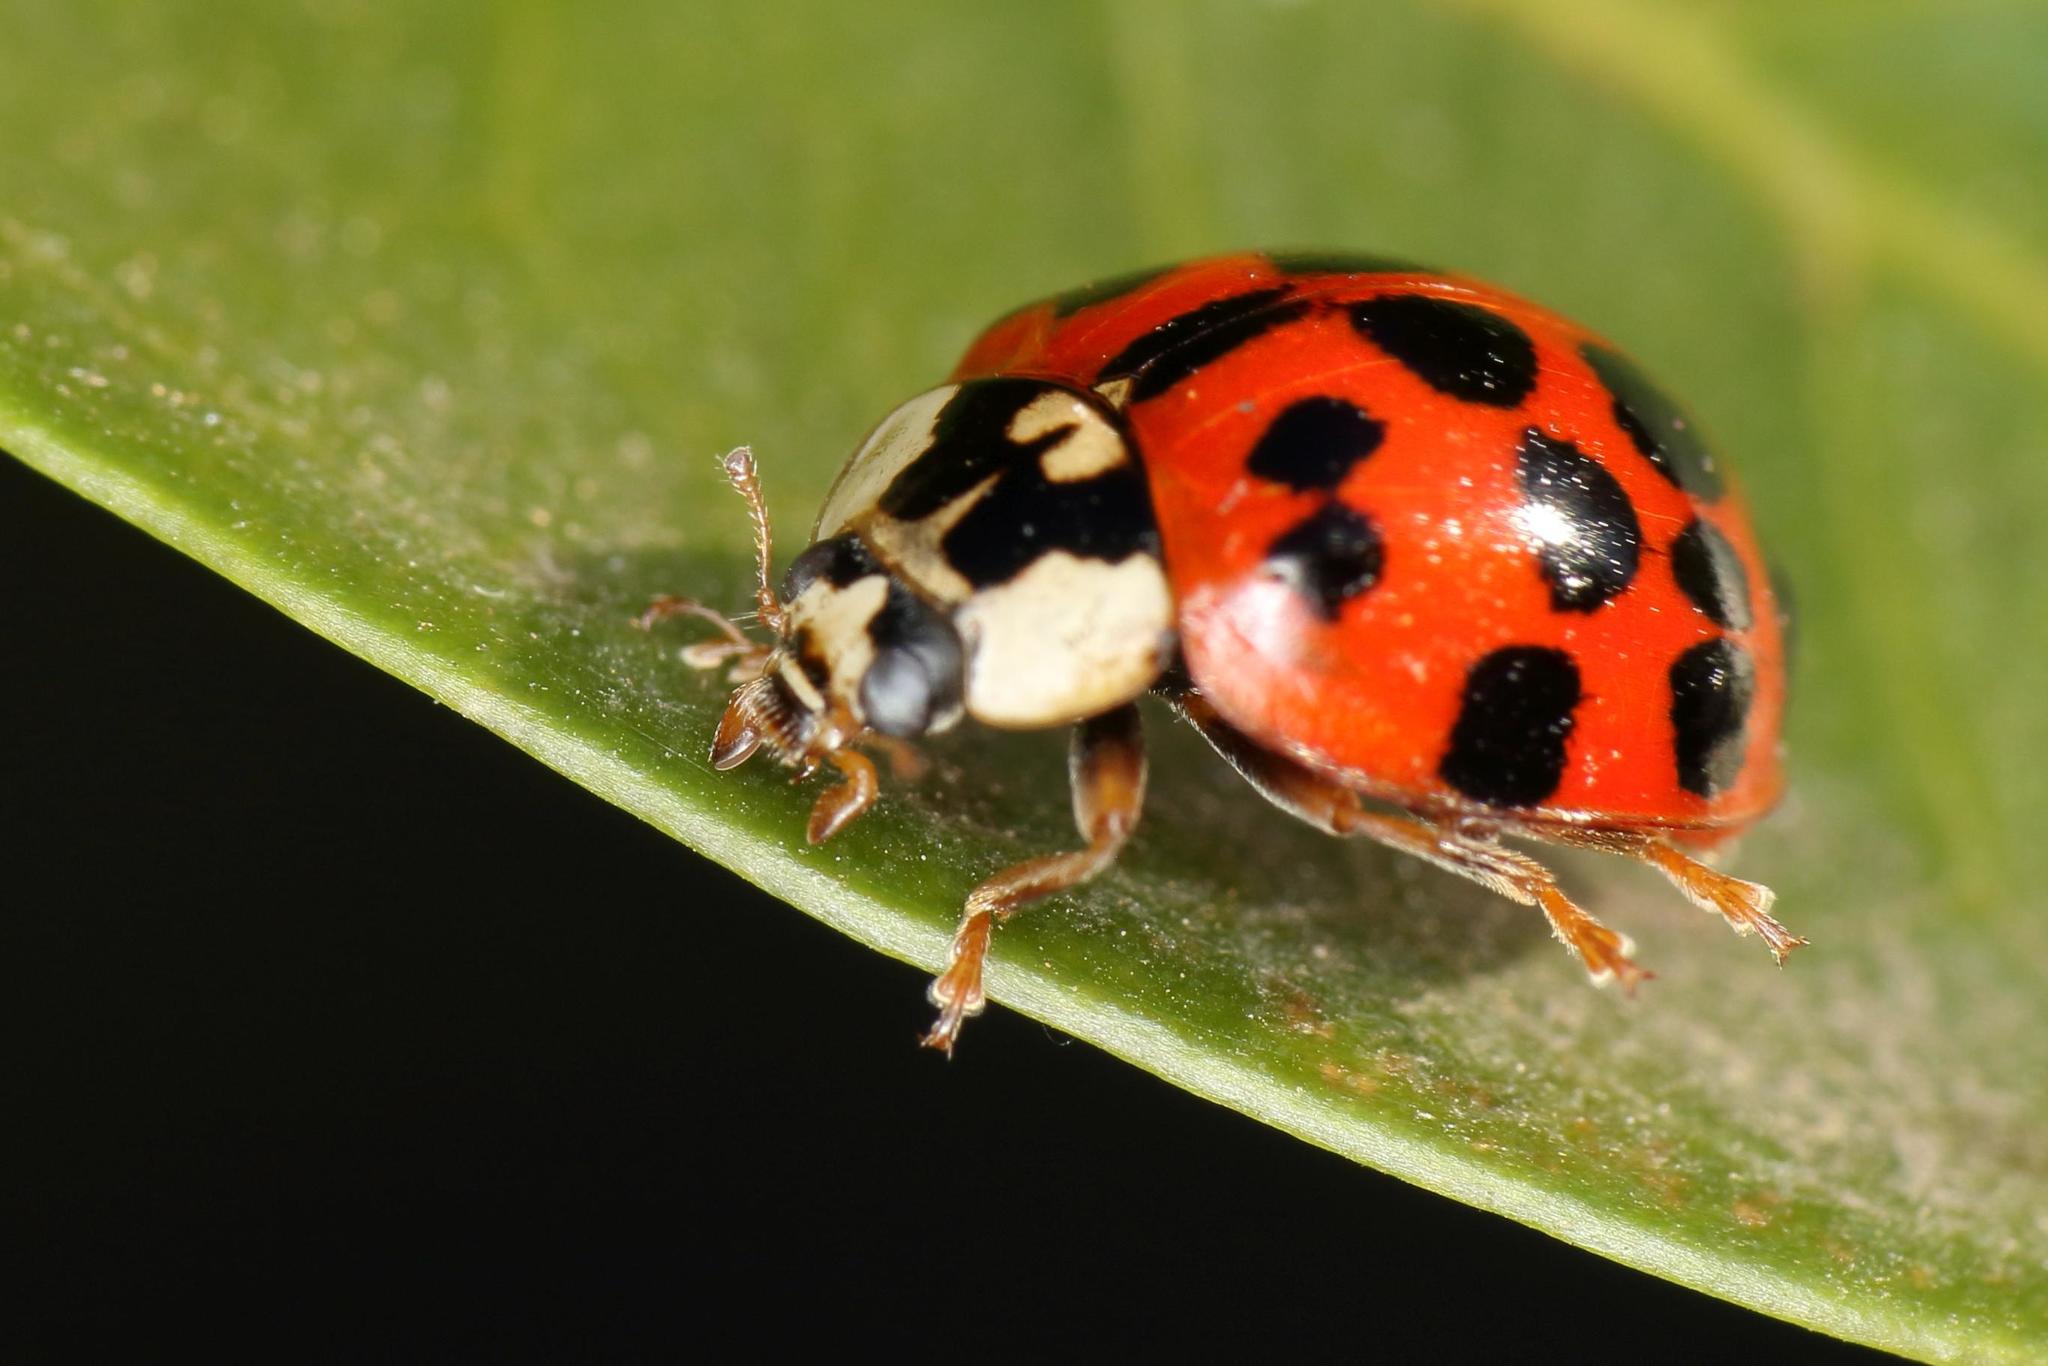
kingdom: Animalia
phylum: Arthropoda
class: Insecta
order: Coleoptera
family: Coccinellidae
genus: Harmonia
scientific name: Harmonia axyridis
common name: Harlequin ladybird
